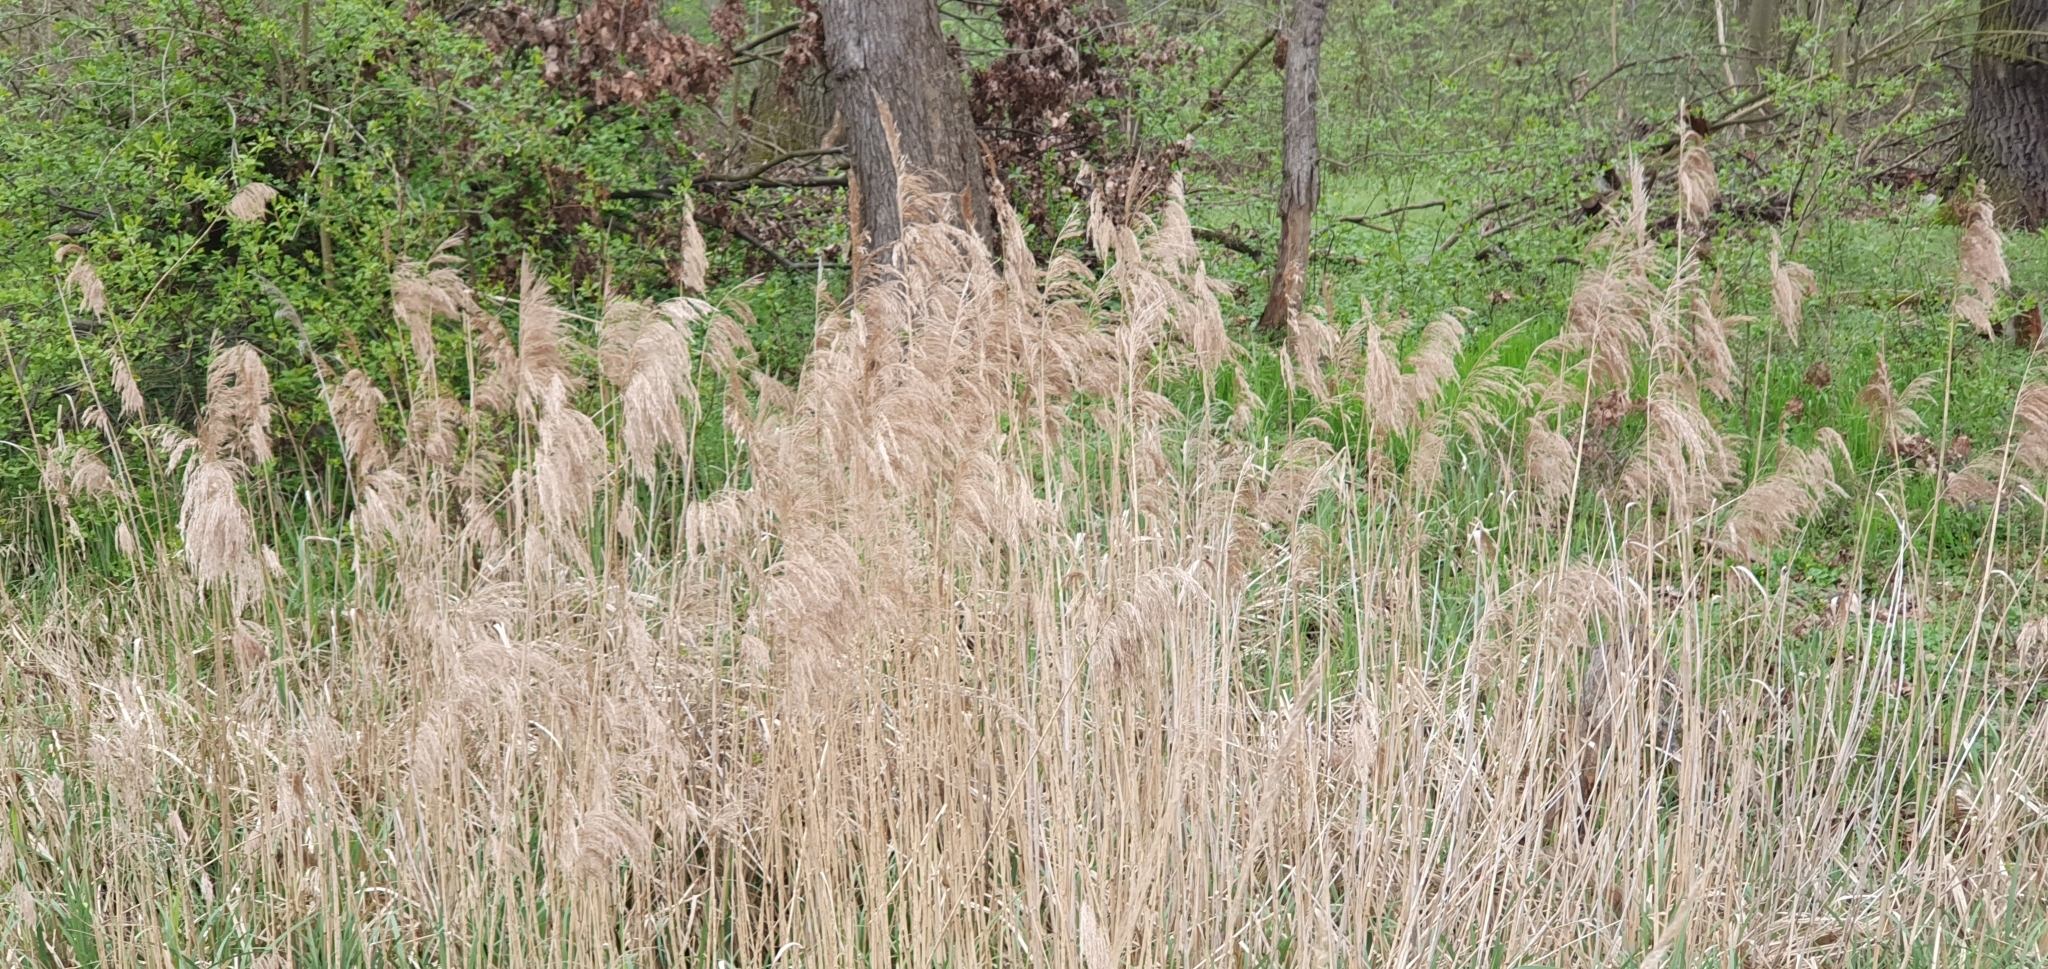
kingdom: Plantae
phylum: Tracheophyta
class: Liliopsida
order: Poales
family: Poaceae
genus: Phragmites
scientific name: Phragmites australis
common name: Common reed
